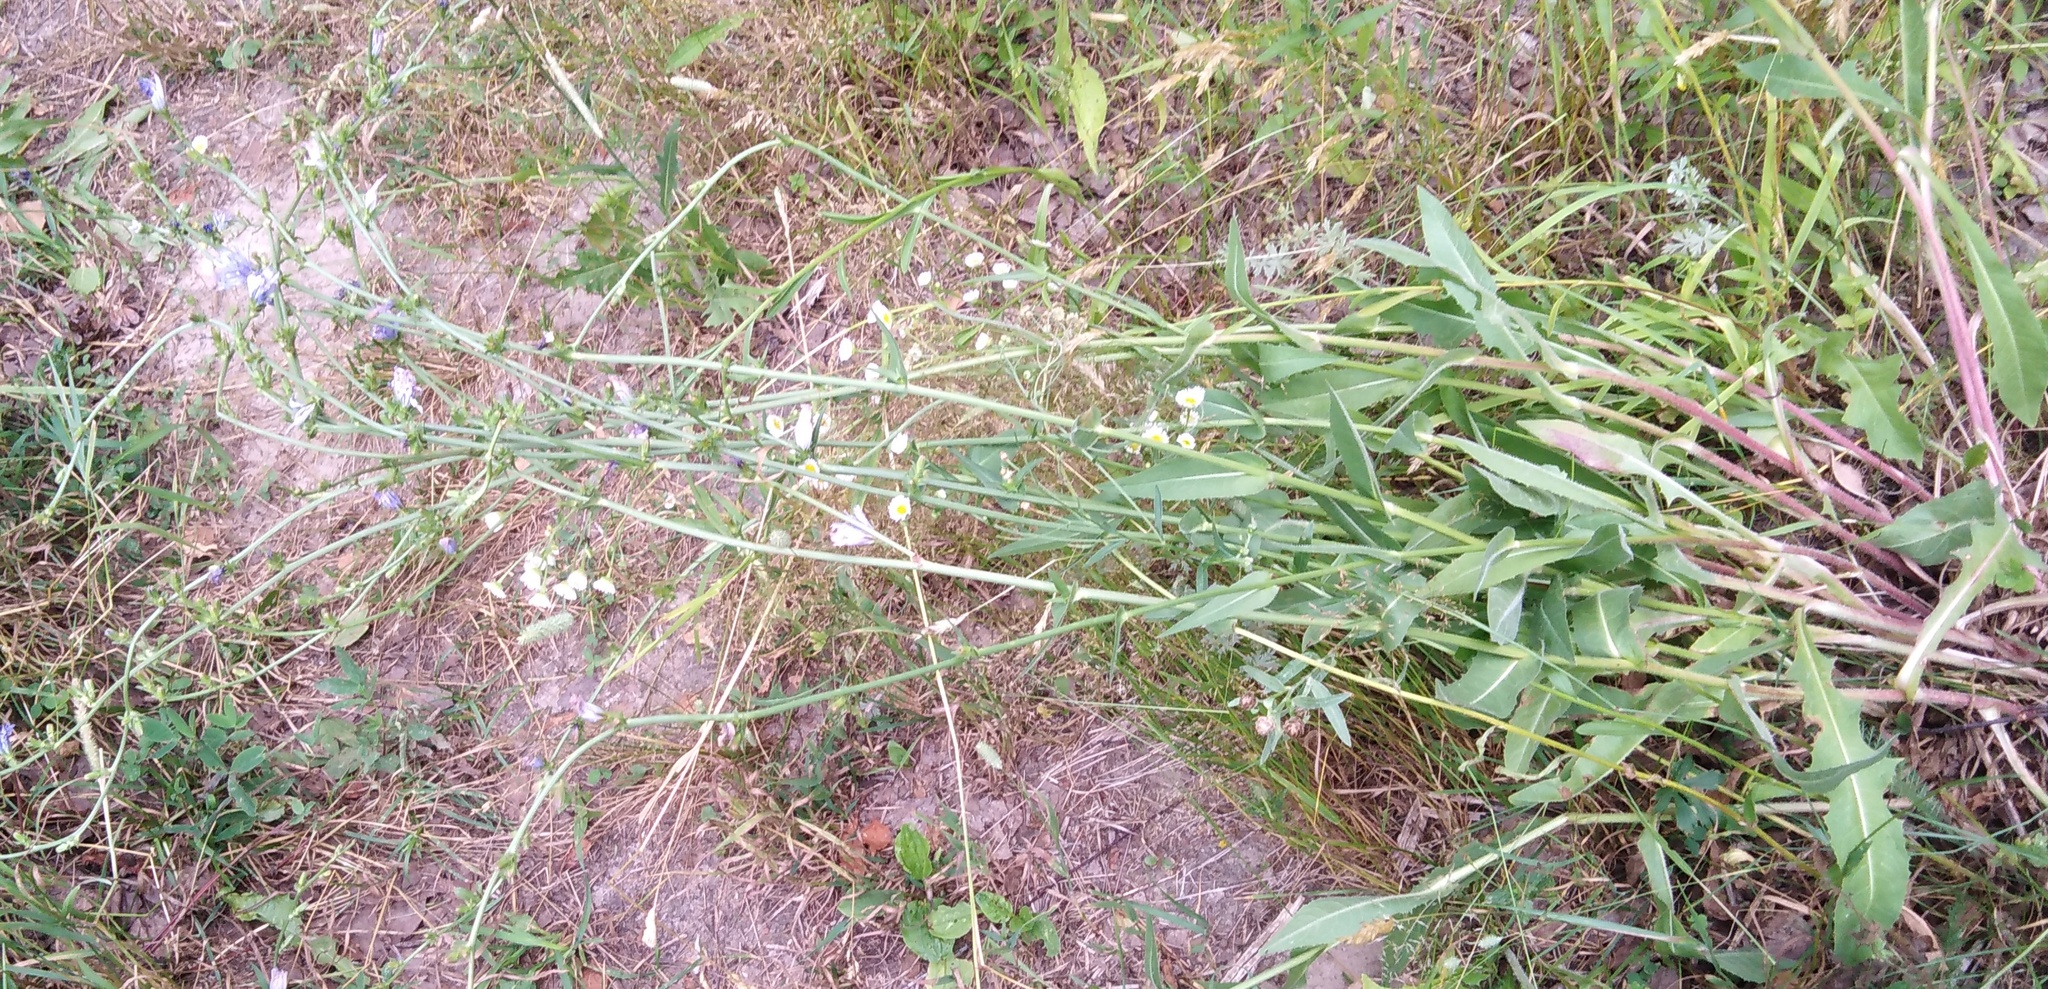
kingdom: Plantae
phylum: Tracheophyta
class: Magnoliopsida
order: Asterales
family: Asteraceae
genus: Cichorium
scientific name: Cichorium intybus
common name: Chicory
